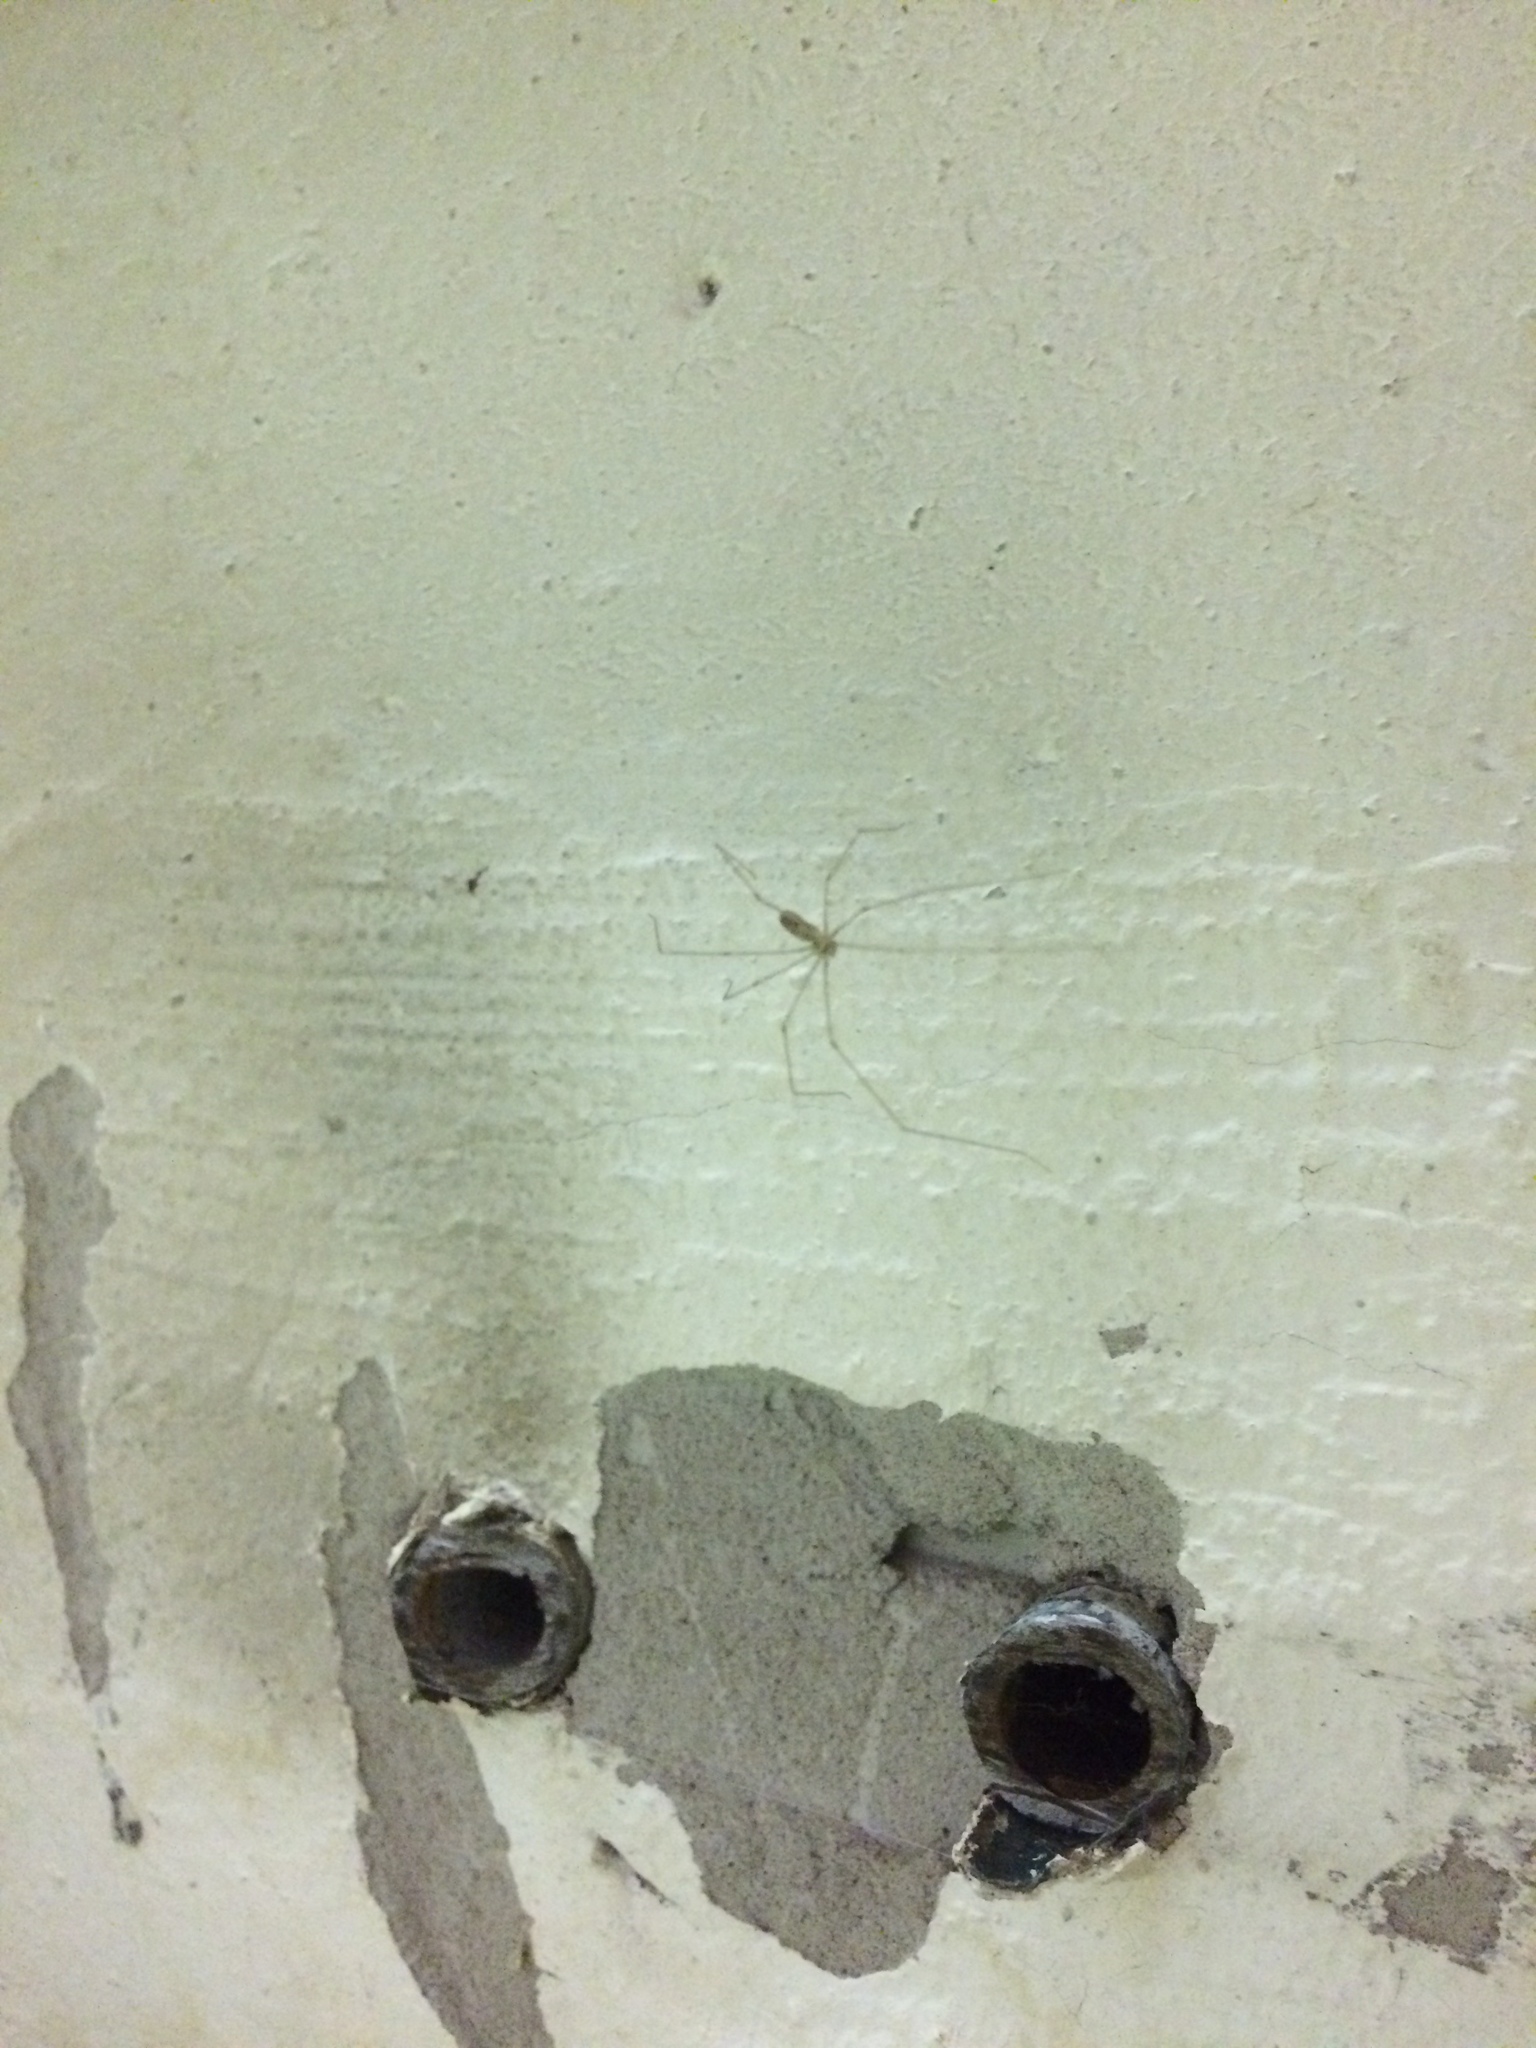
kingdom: Animalia
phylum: Arthropoda
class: Arachnida
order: Araneae
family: Pholcidae
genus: Pholcus
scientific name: Pholcus phalangioides
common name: Longbodied cellar spider
